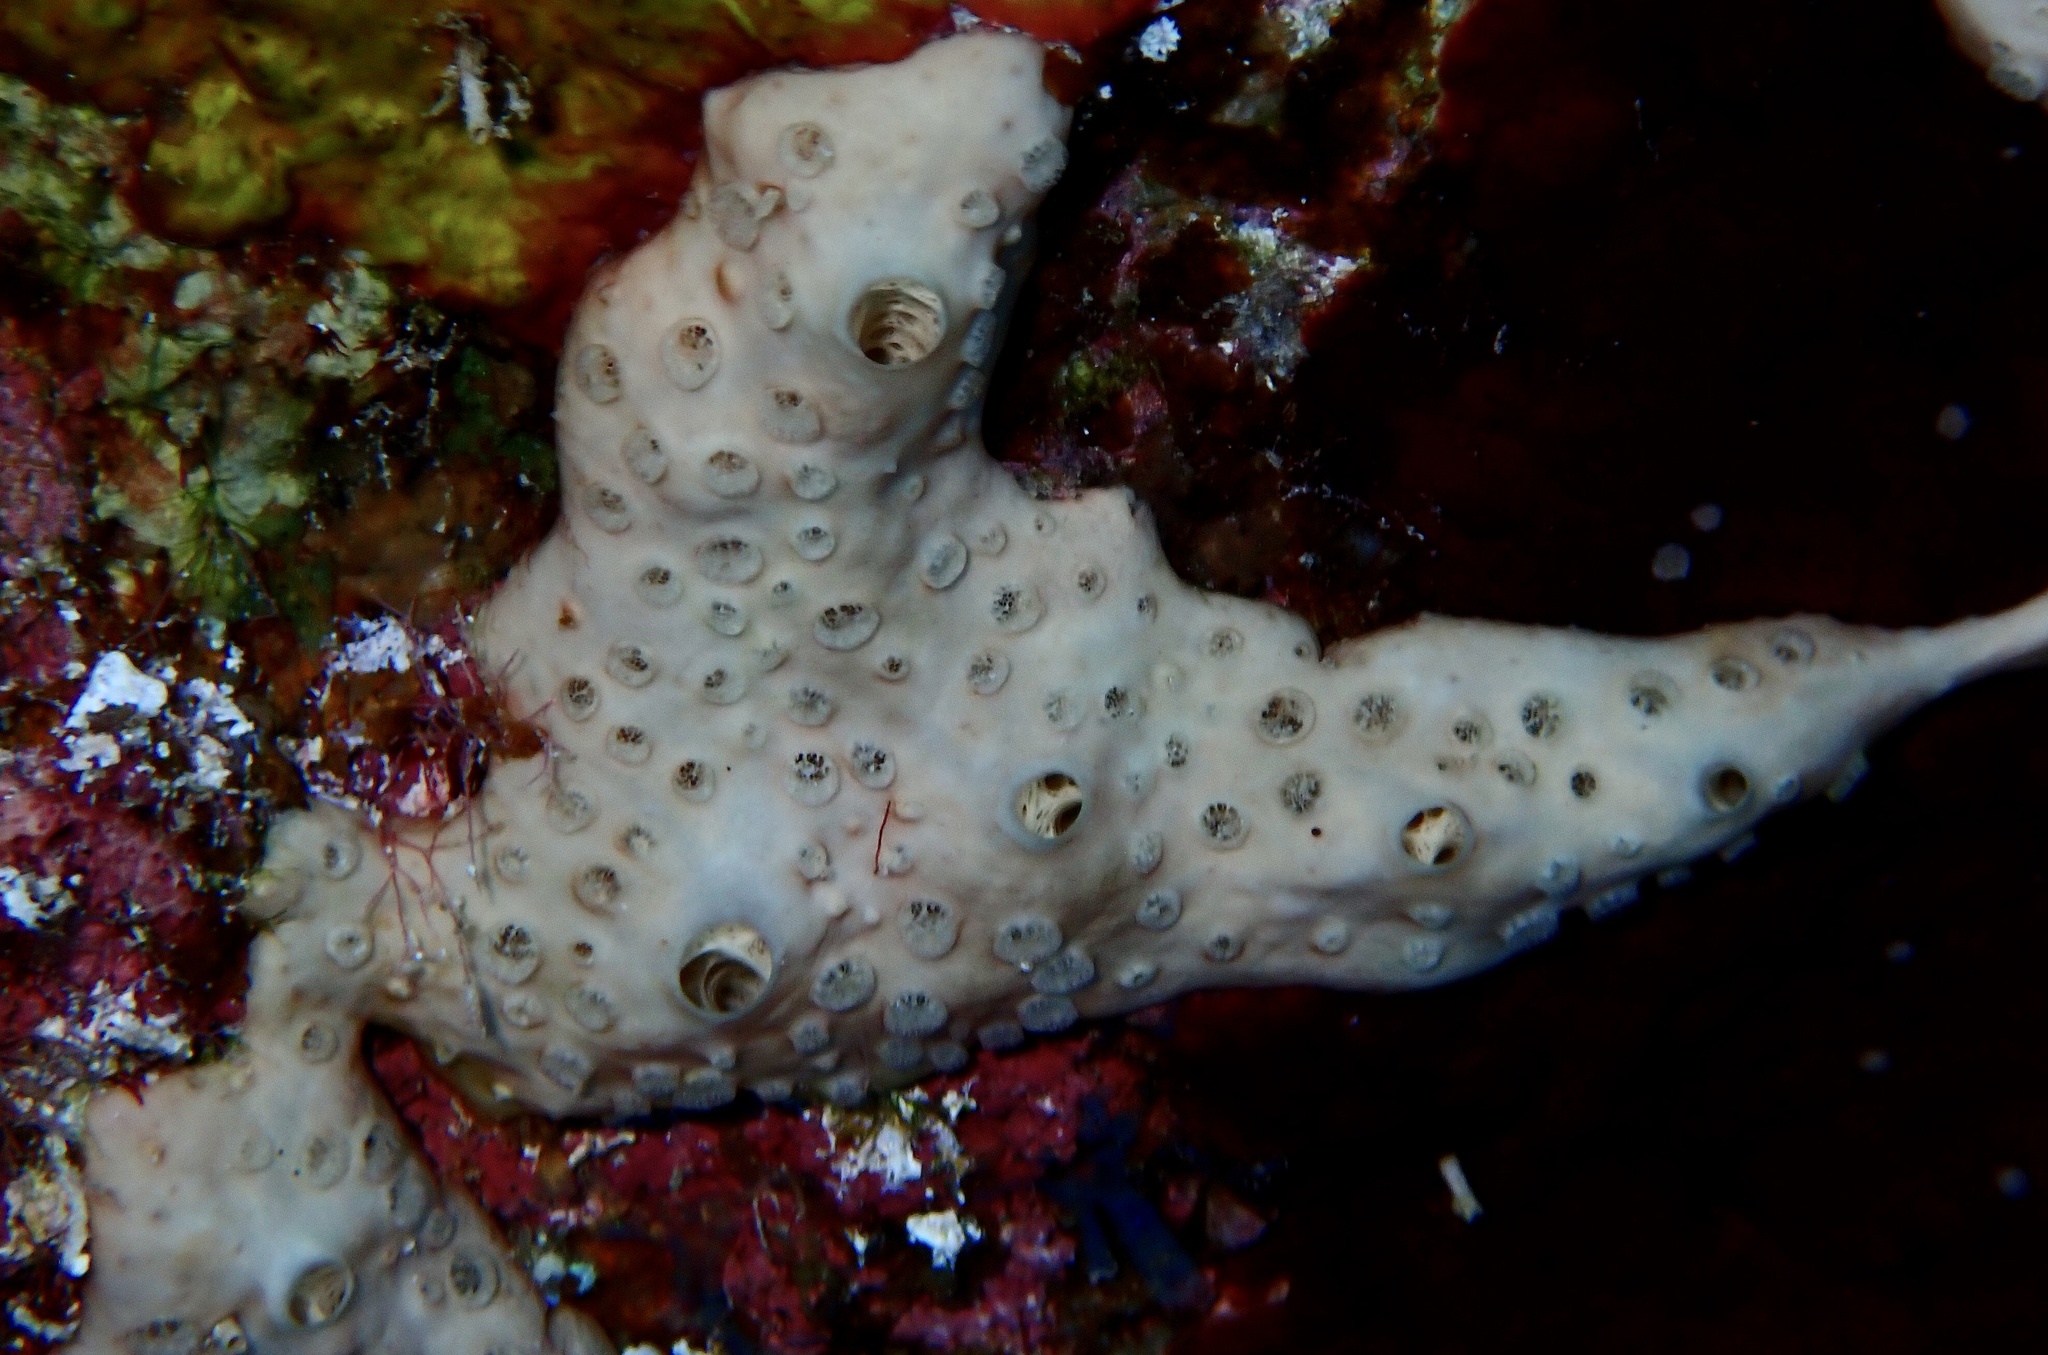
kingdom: Animalia
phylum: Porifera
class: Demospongiae
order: Poecilosclerida
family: Crellidae
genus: Crella
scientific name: Crella cyathophora
